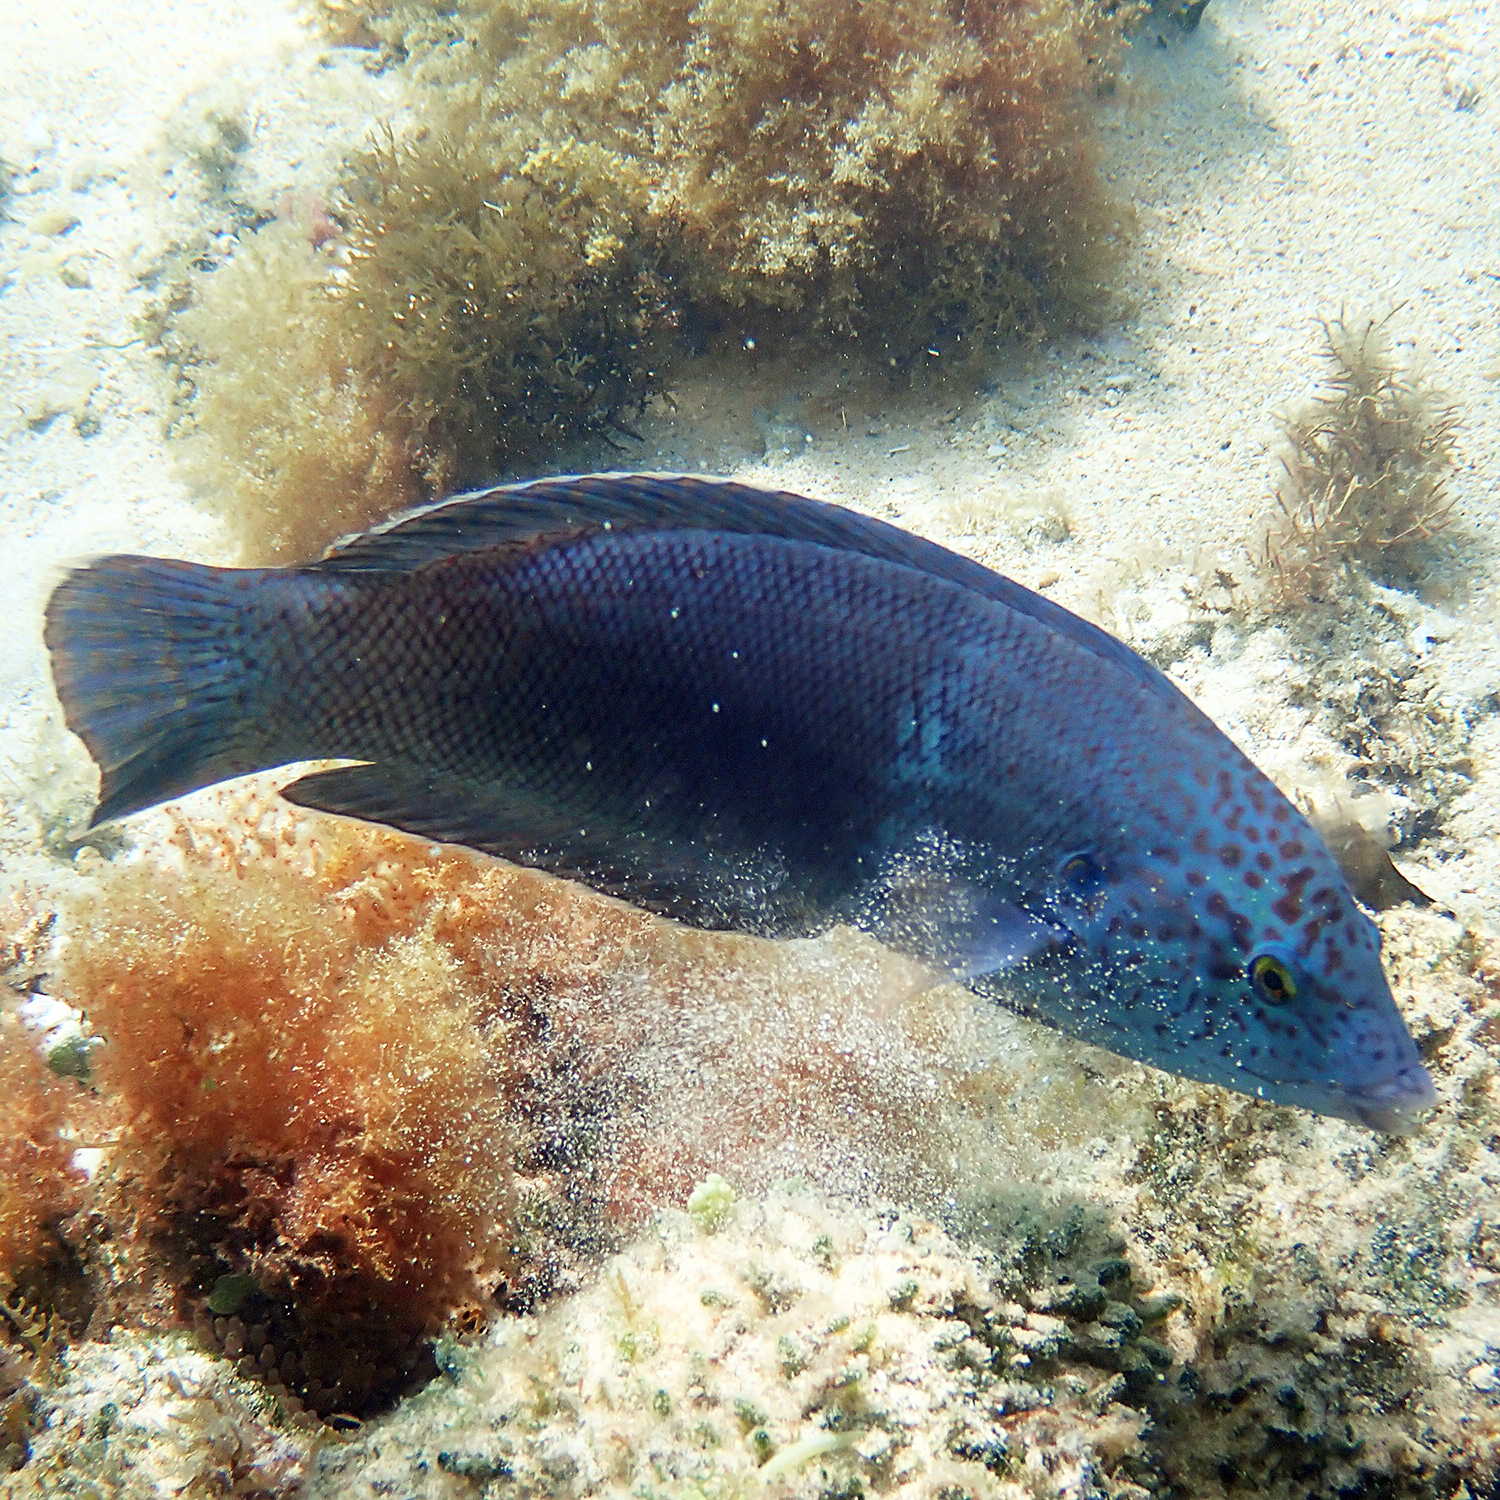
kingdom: Animalia
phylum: Chordata
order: Perciformes
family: Labridae
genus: Coris
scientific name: Coris bulbifrons
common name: Doubleheader
